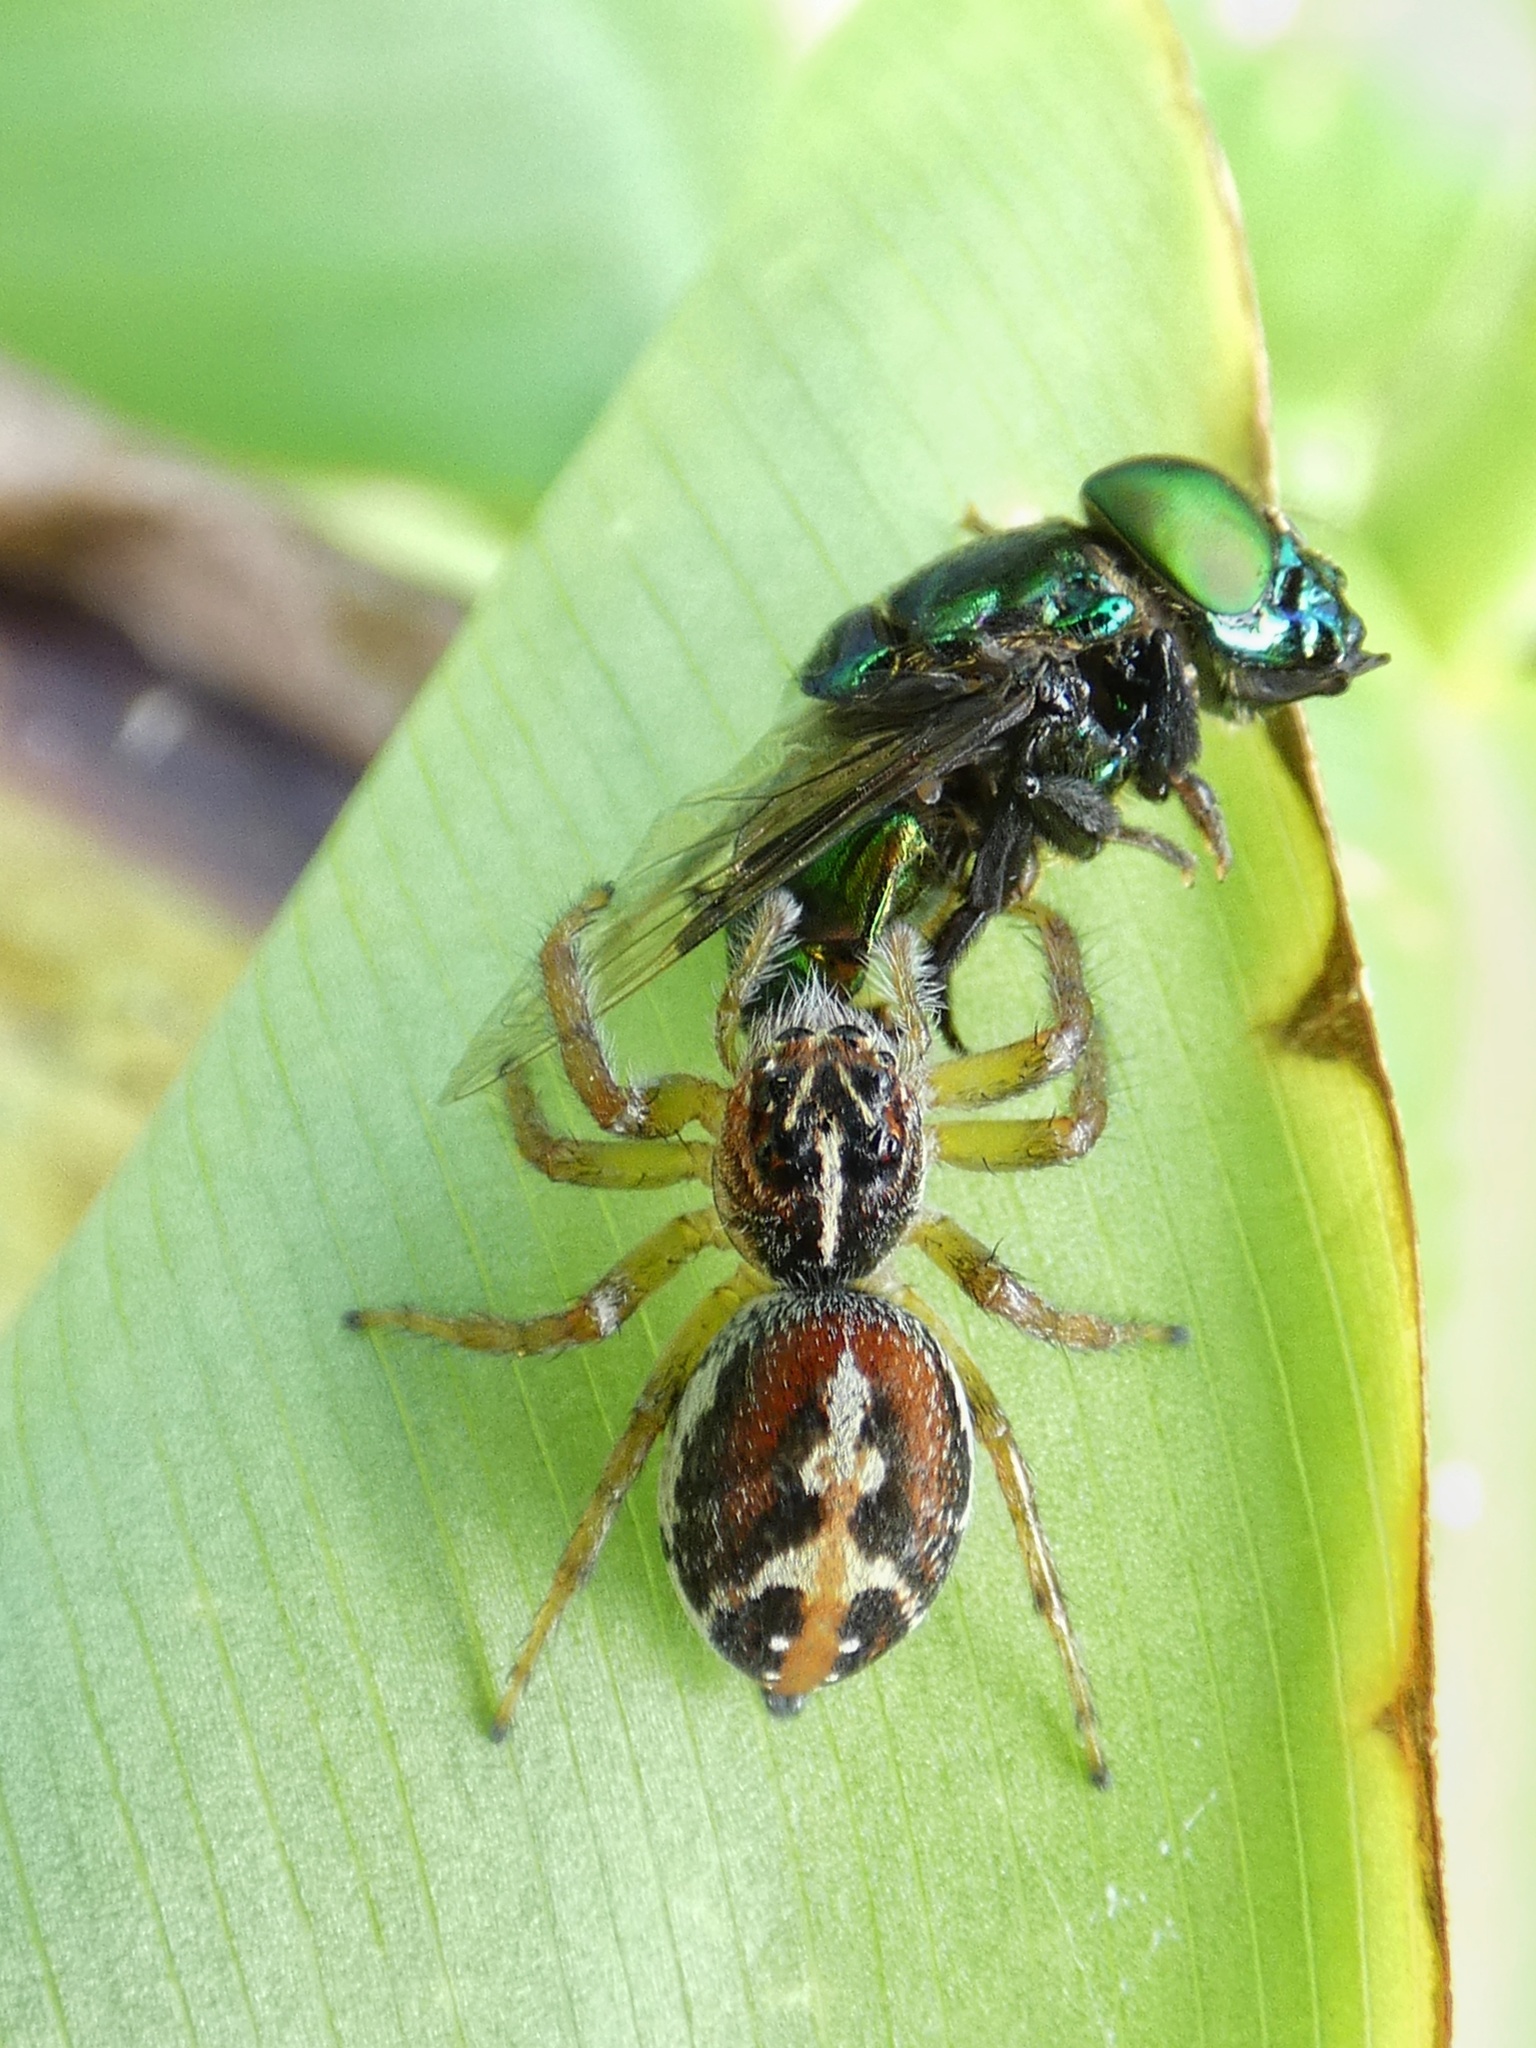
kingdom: Animalia
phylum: Arthropoda
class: Arachnida
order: Araneae
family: Salticidae
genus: Frigga
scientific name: Frigga pratensis
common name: Jumping spiders
